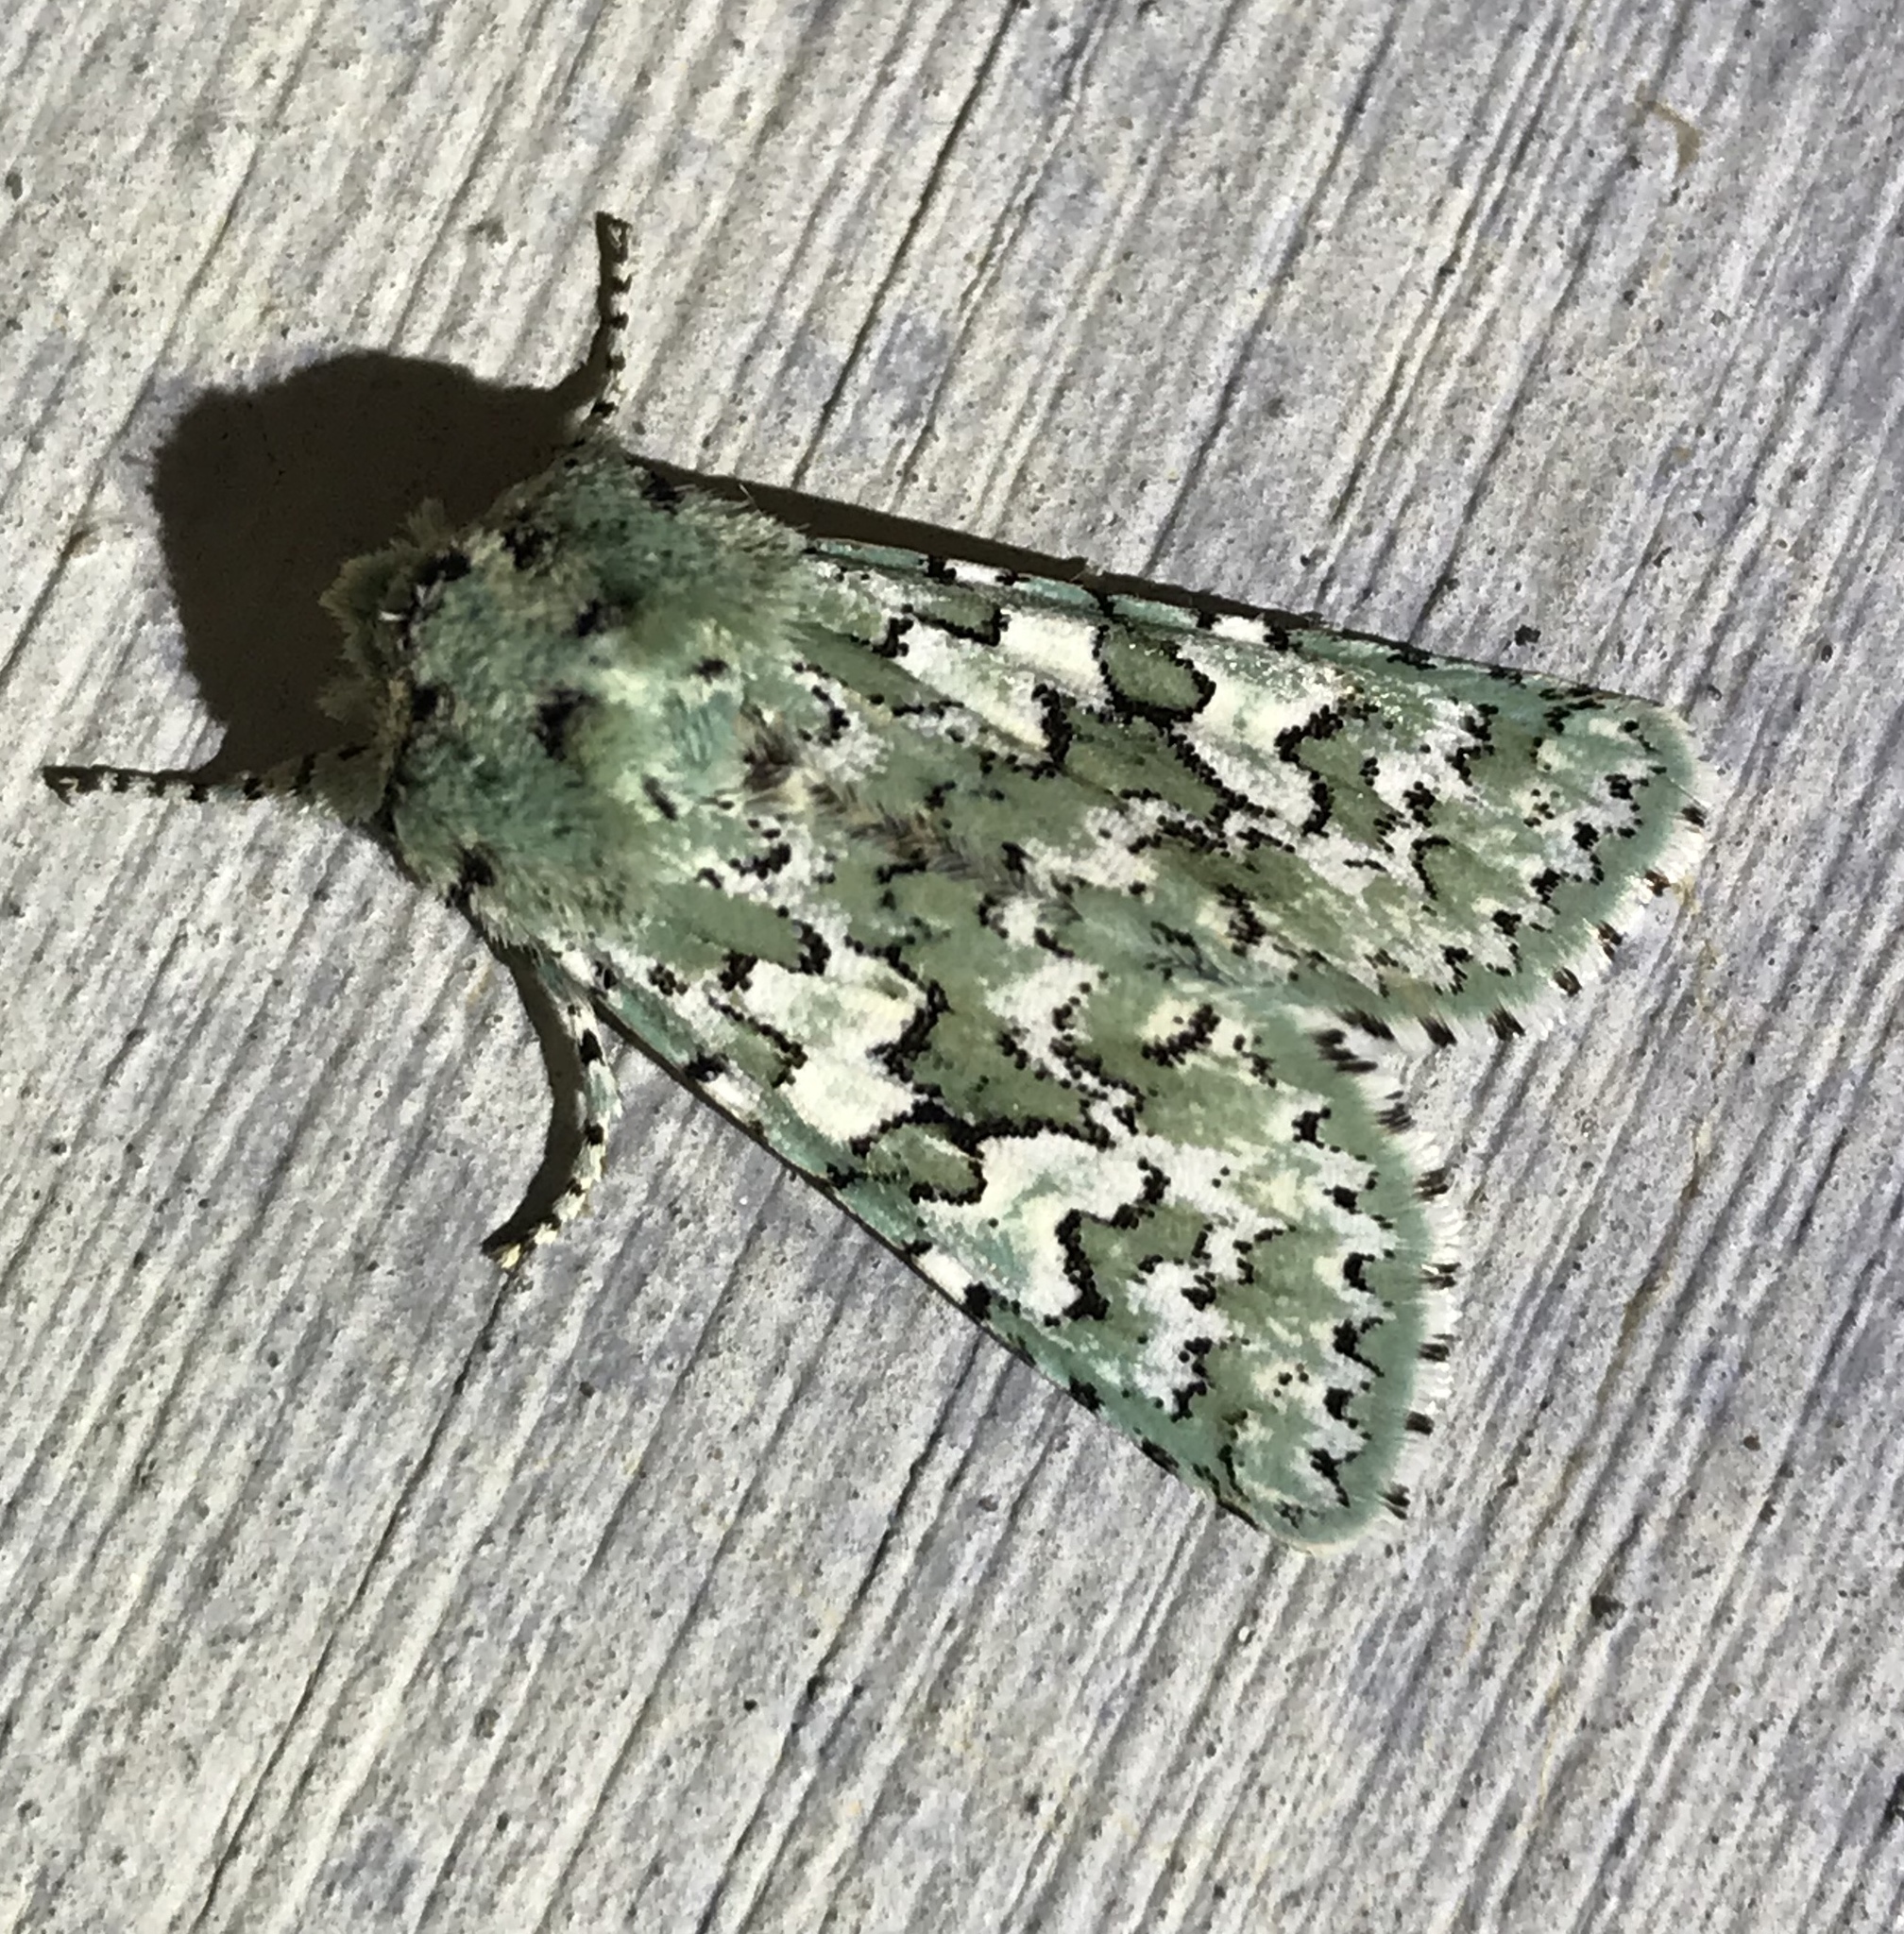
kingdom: Animalia
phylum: Arthropoda
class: Insecta
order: Lepidoptera
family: Noctuidae
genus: Feralia
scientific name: Feralia februalis
